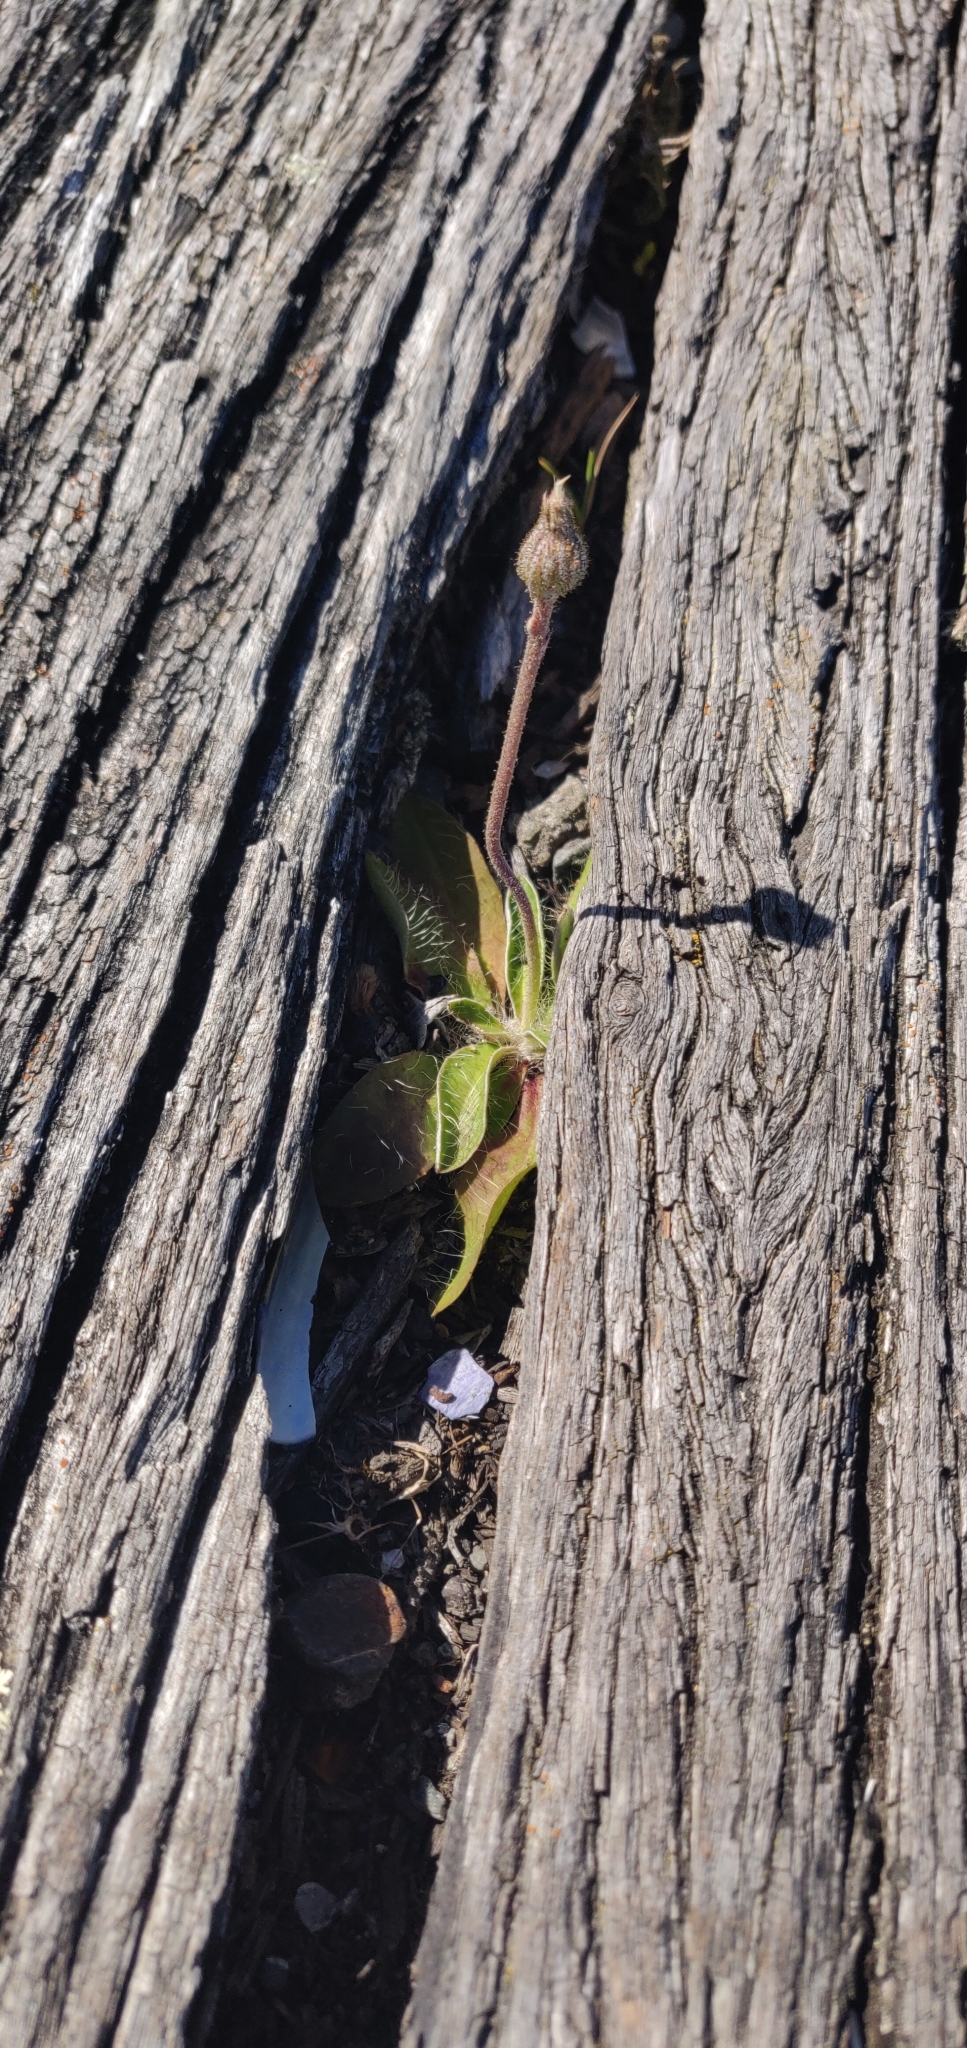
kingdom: Plantae
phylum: Tracheophyta
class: Magnoliopsida
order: Asterales
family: Asteraceae
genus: Pilosella
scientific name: Pilosella officinarum
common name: Mouse-ear hawkweed
